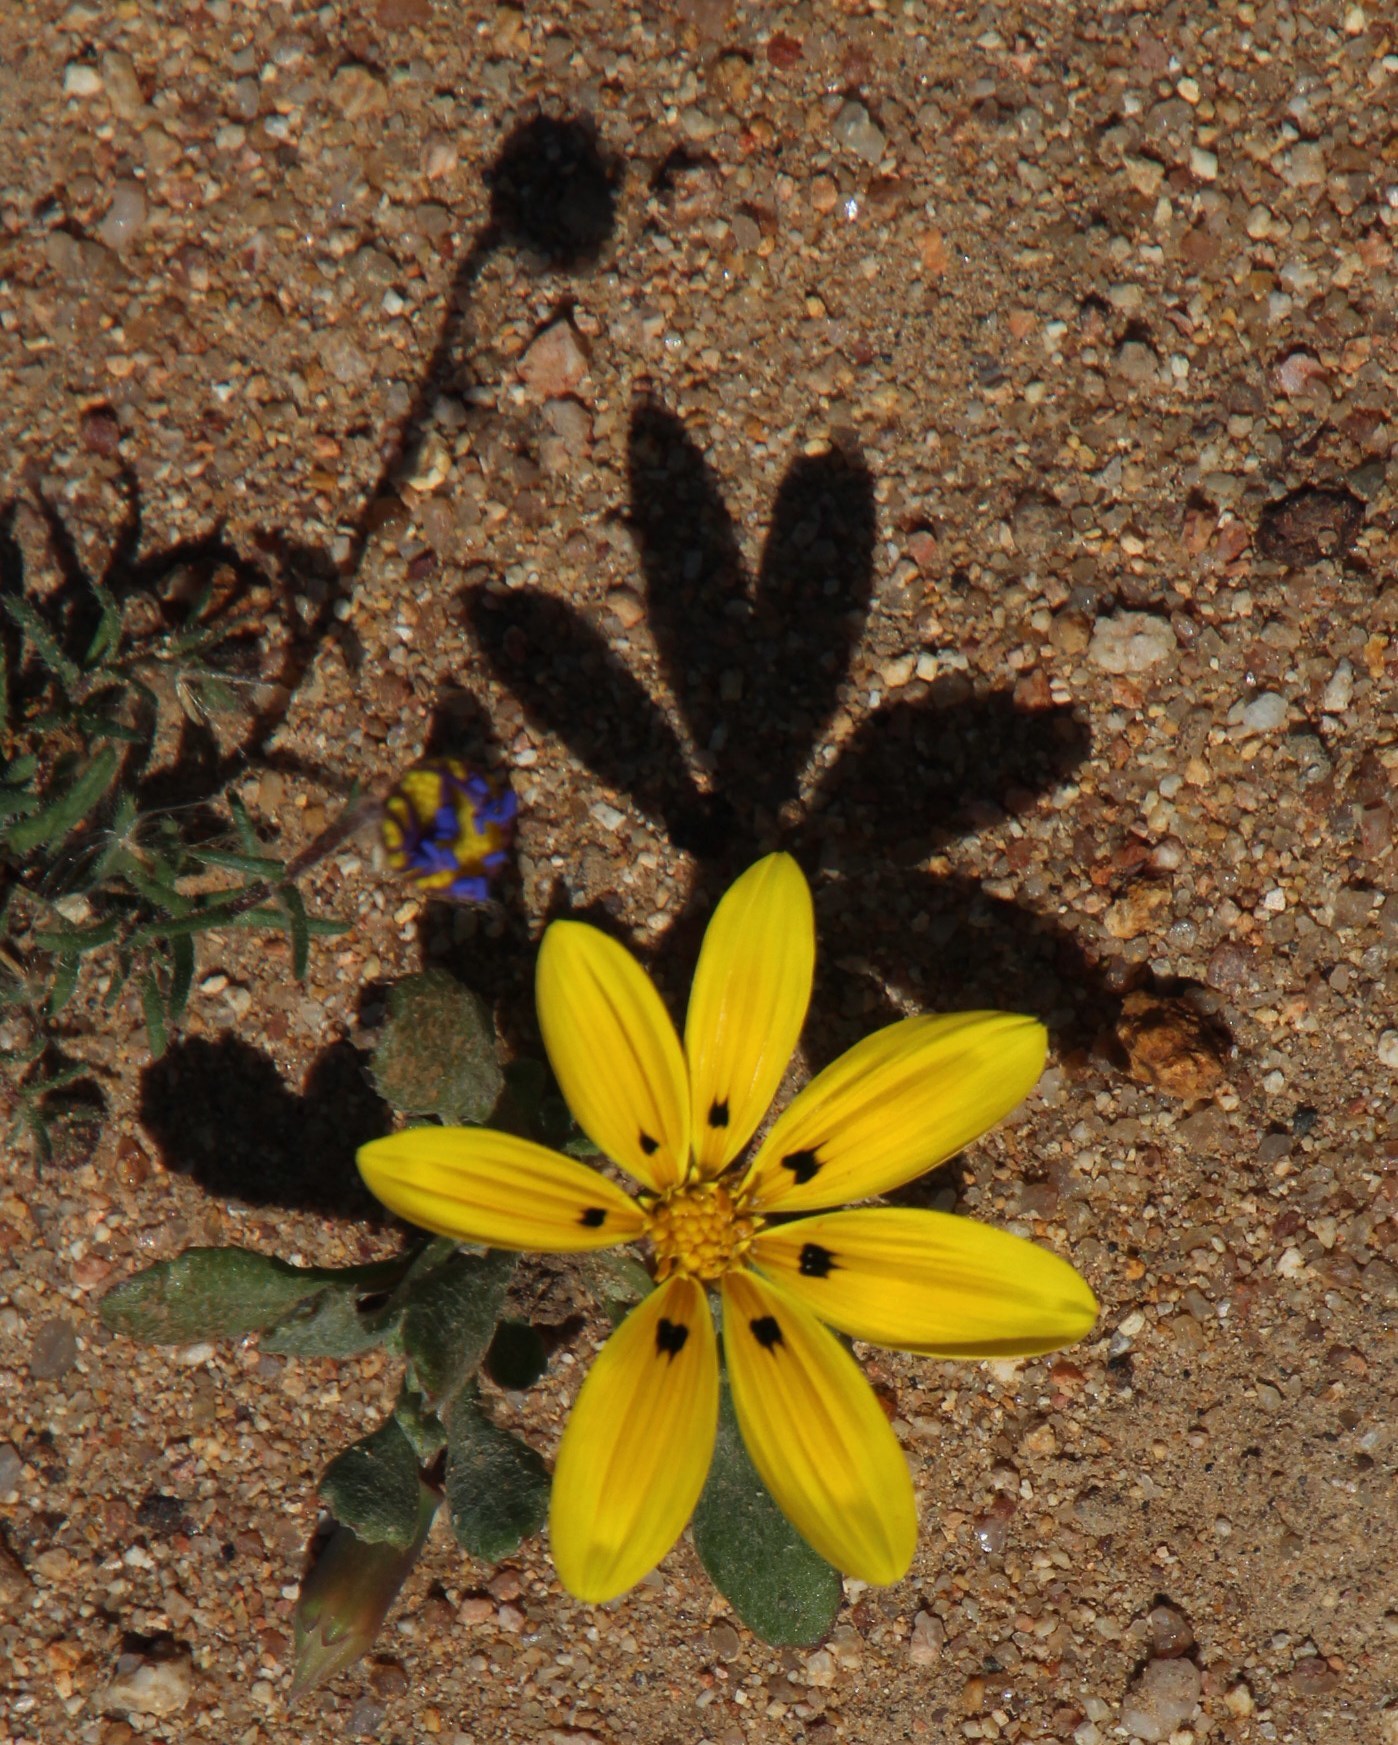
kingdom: Plantae
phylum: Tracheophyta
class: Magnoliopsida
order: Asterales
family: Asteraceae
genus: Gazania
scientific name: Gazania lichtensteinii
